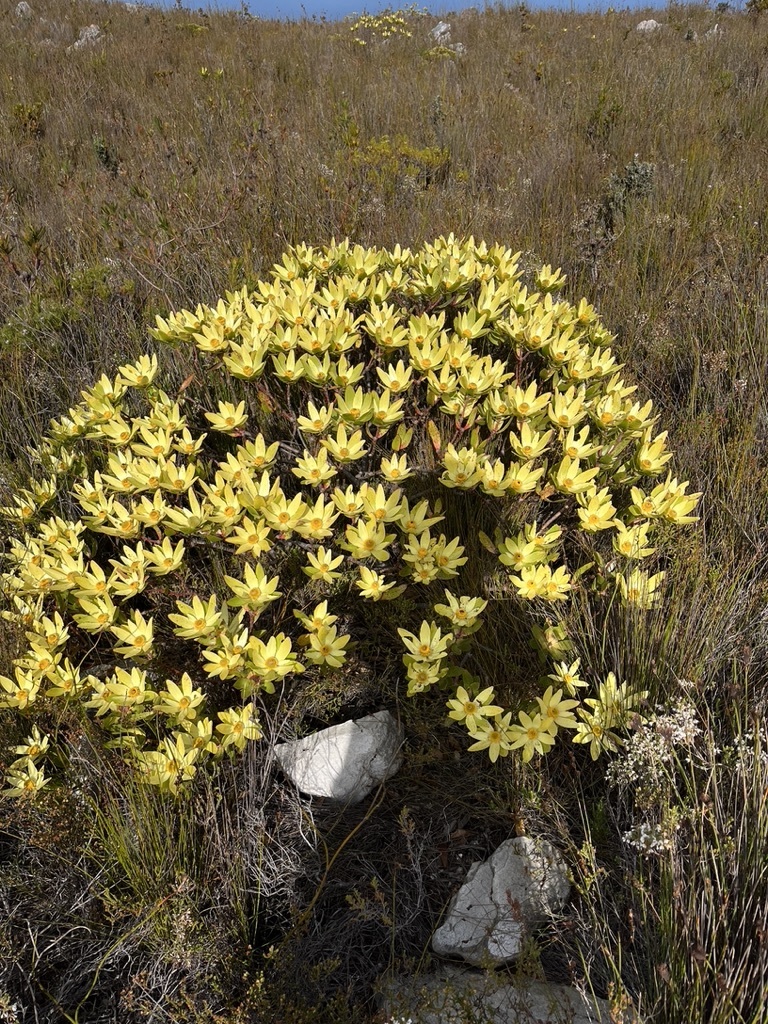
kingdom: Plantae
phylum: Tracheophyta
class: Magnoliopsida
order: Proteales
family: Proteaceae
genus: Leucadendron
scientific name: Leucadendron gandogeri
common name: Broad-leaf conebush
